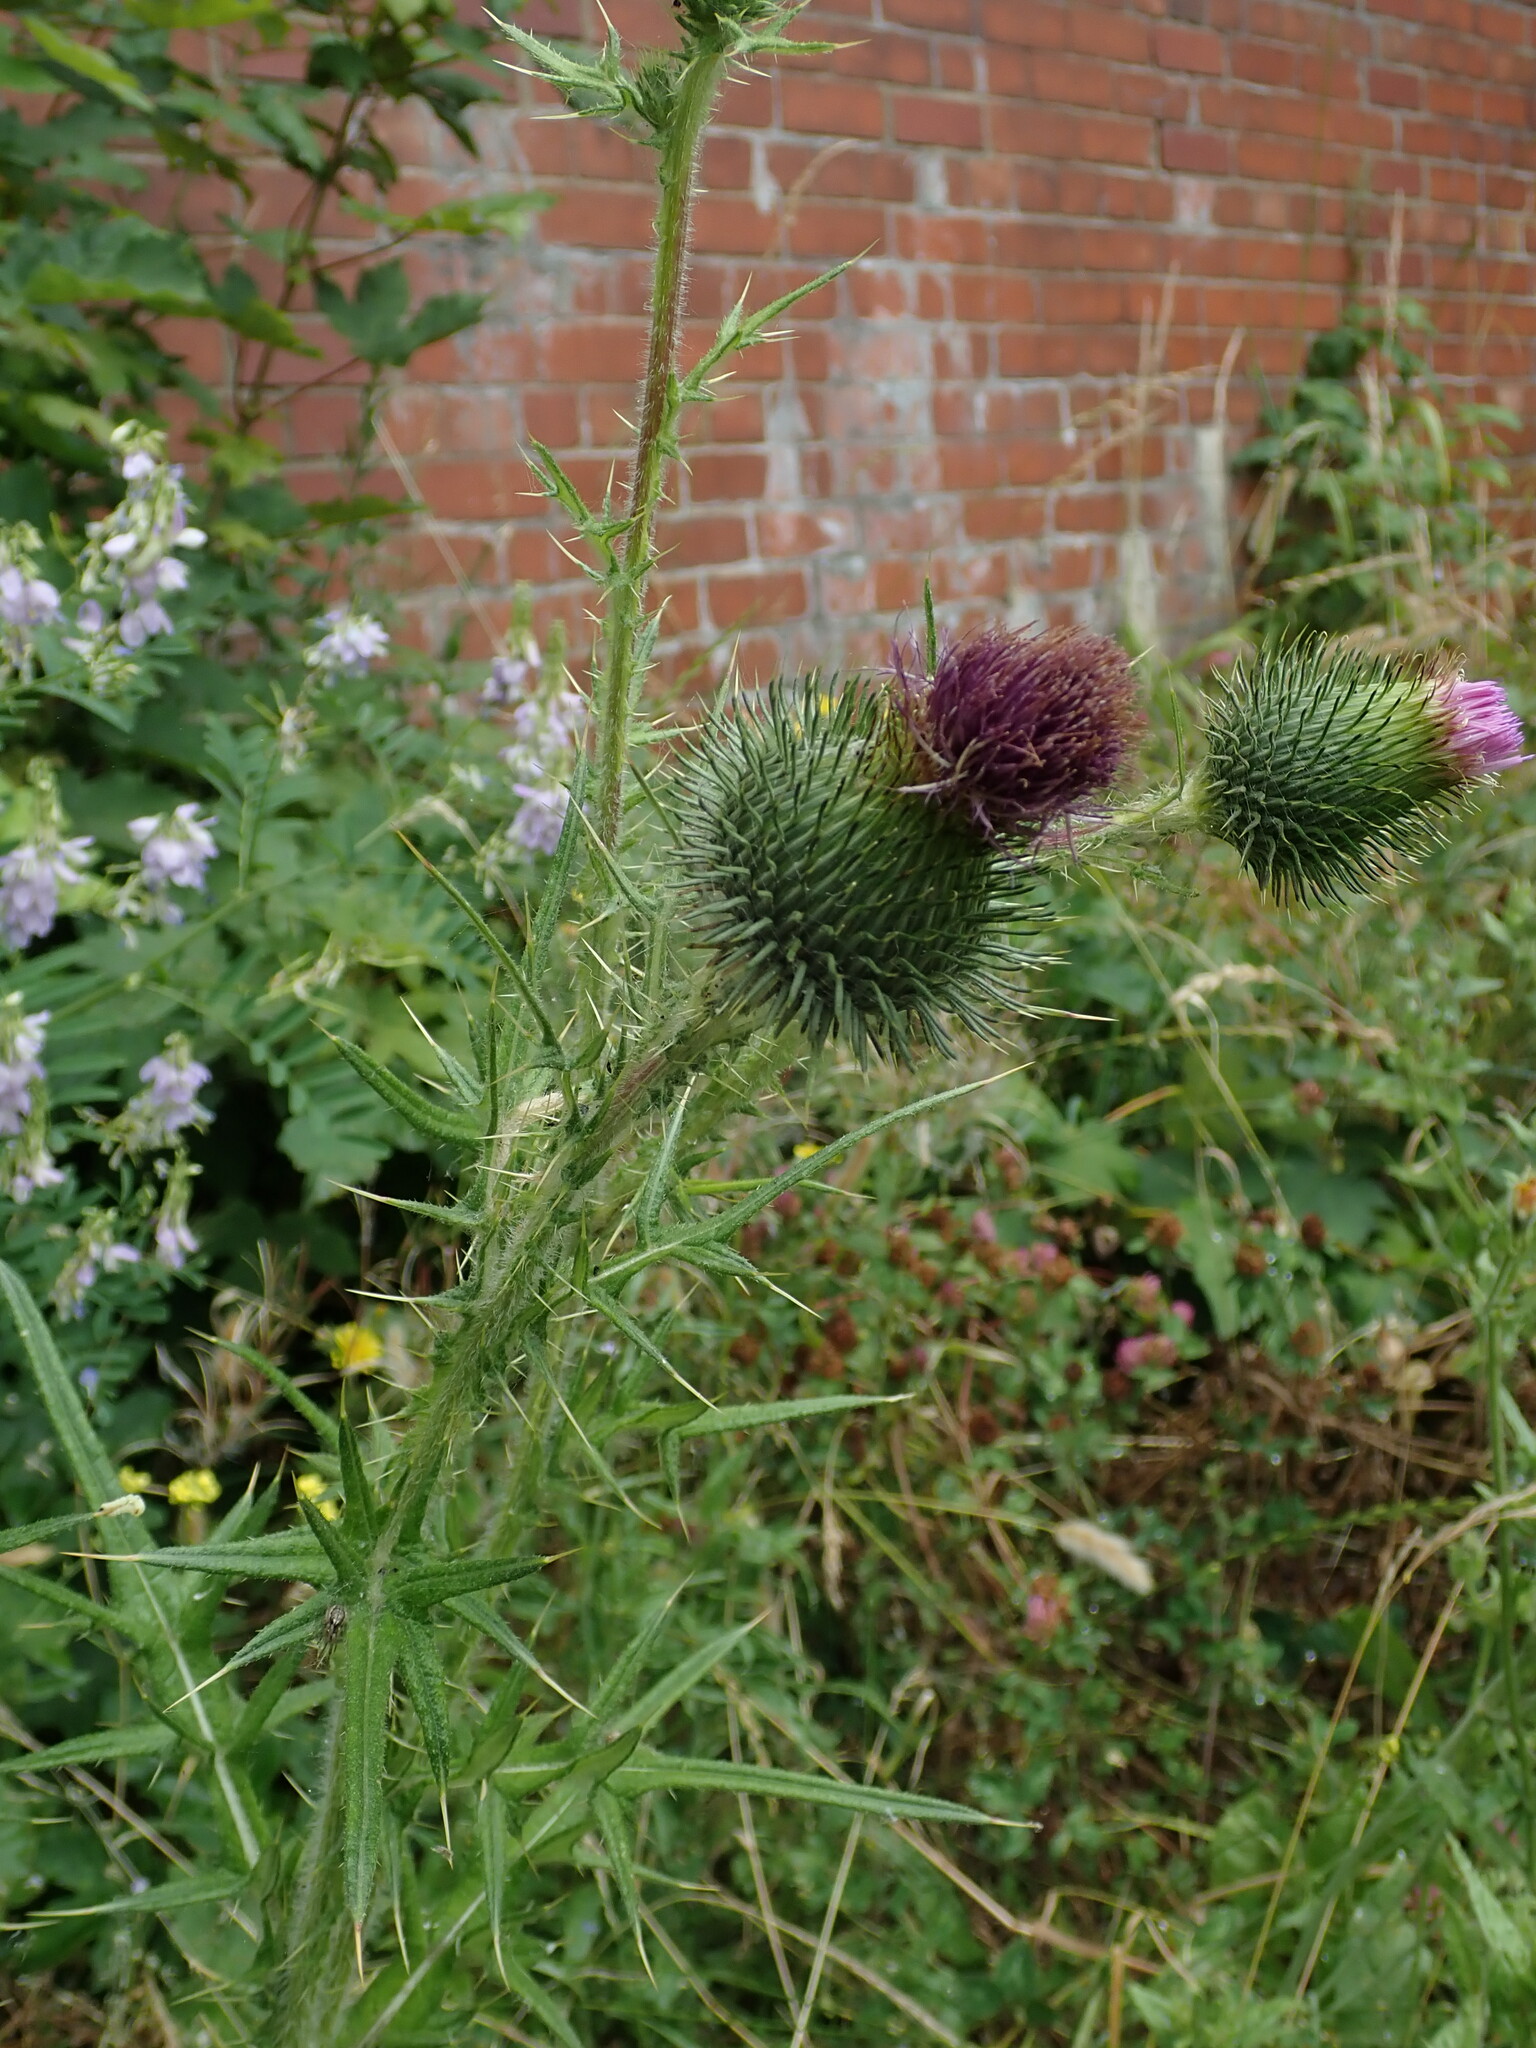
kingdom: Plantae
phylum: Tracheophyta
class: Magnoliopsida
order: Asterales
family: Asteraceae
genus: Cirsium
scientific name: Cirsium vulgare
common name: Bull thistle
